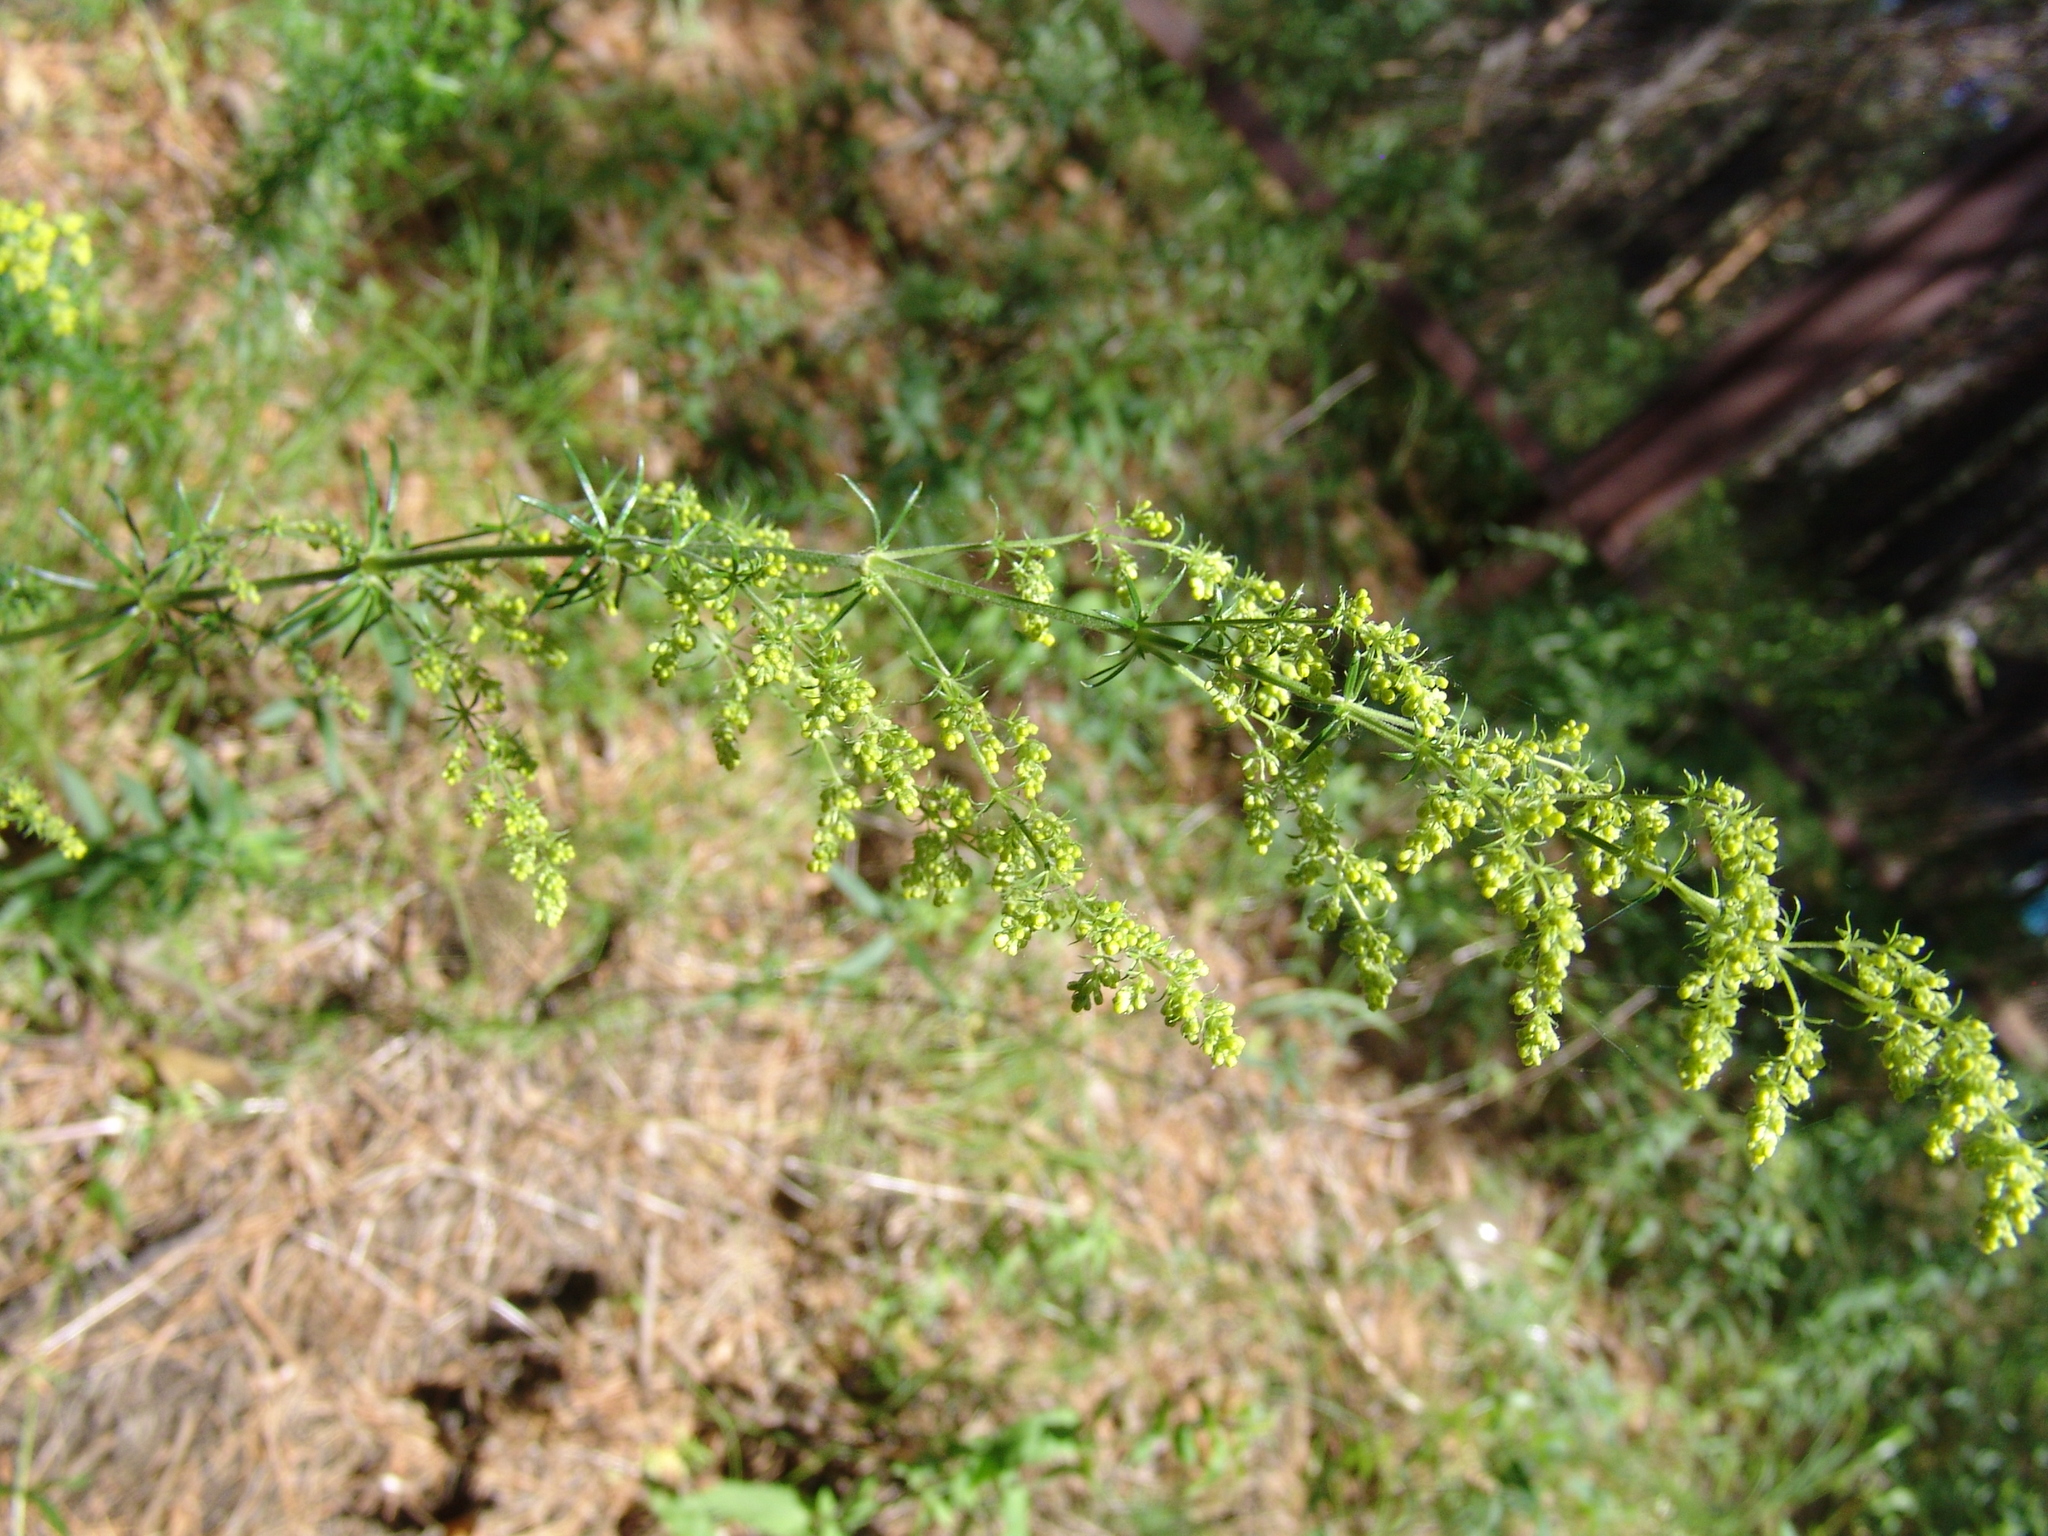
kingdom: Plantae
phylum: Tracheophyta
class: Magnoliopsida
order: Gentianales
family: Rubiaceae
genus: Galium
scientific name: Galium verum
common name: Lady's bedstraw
